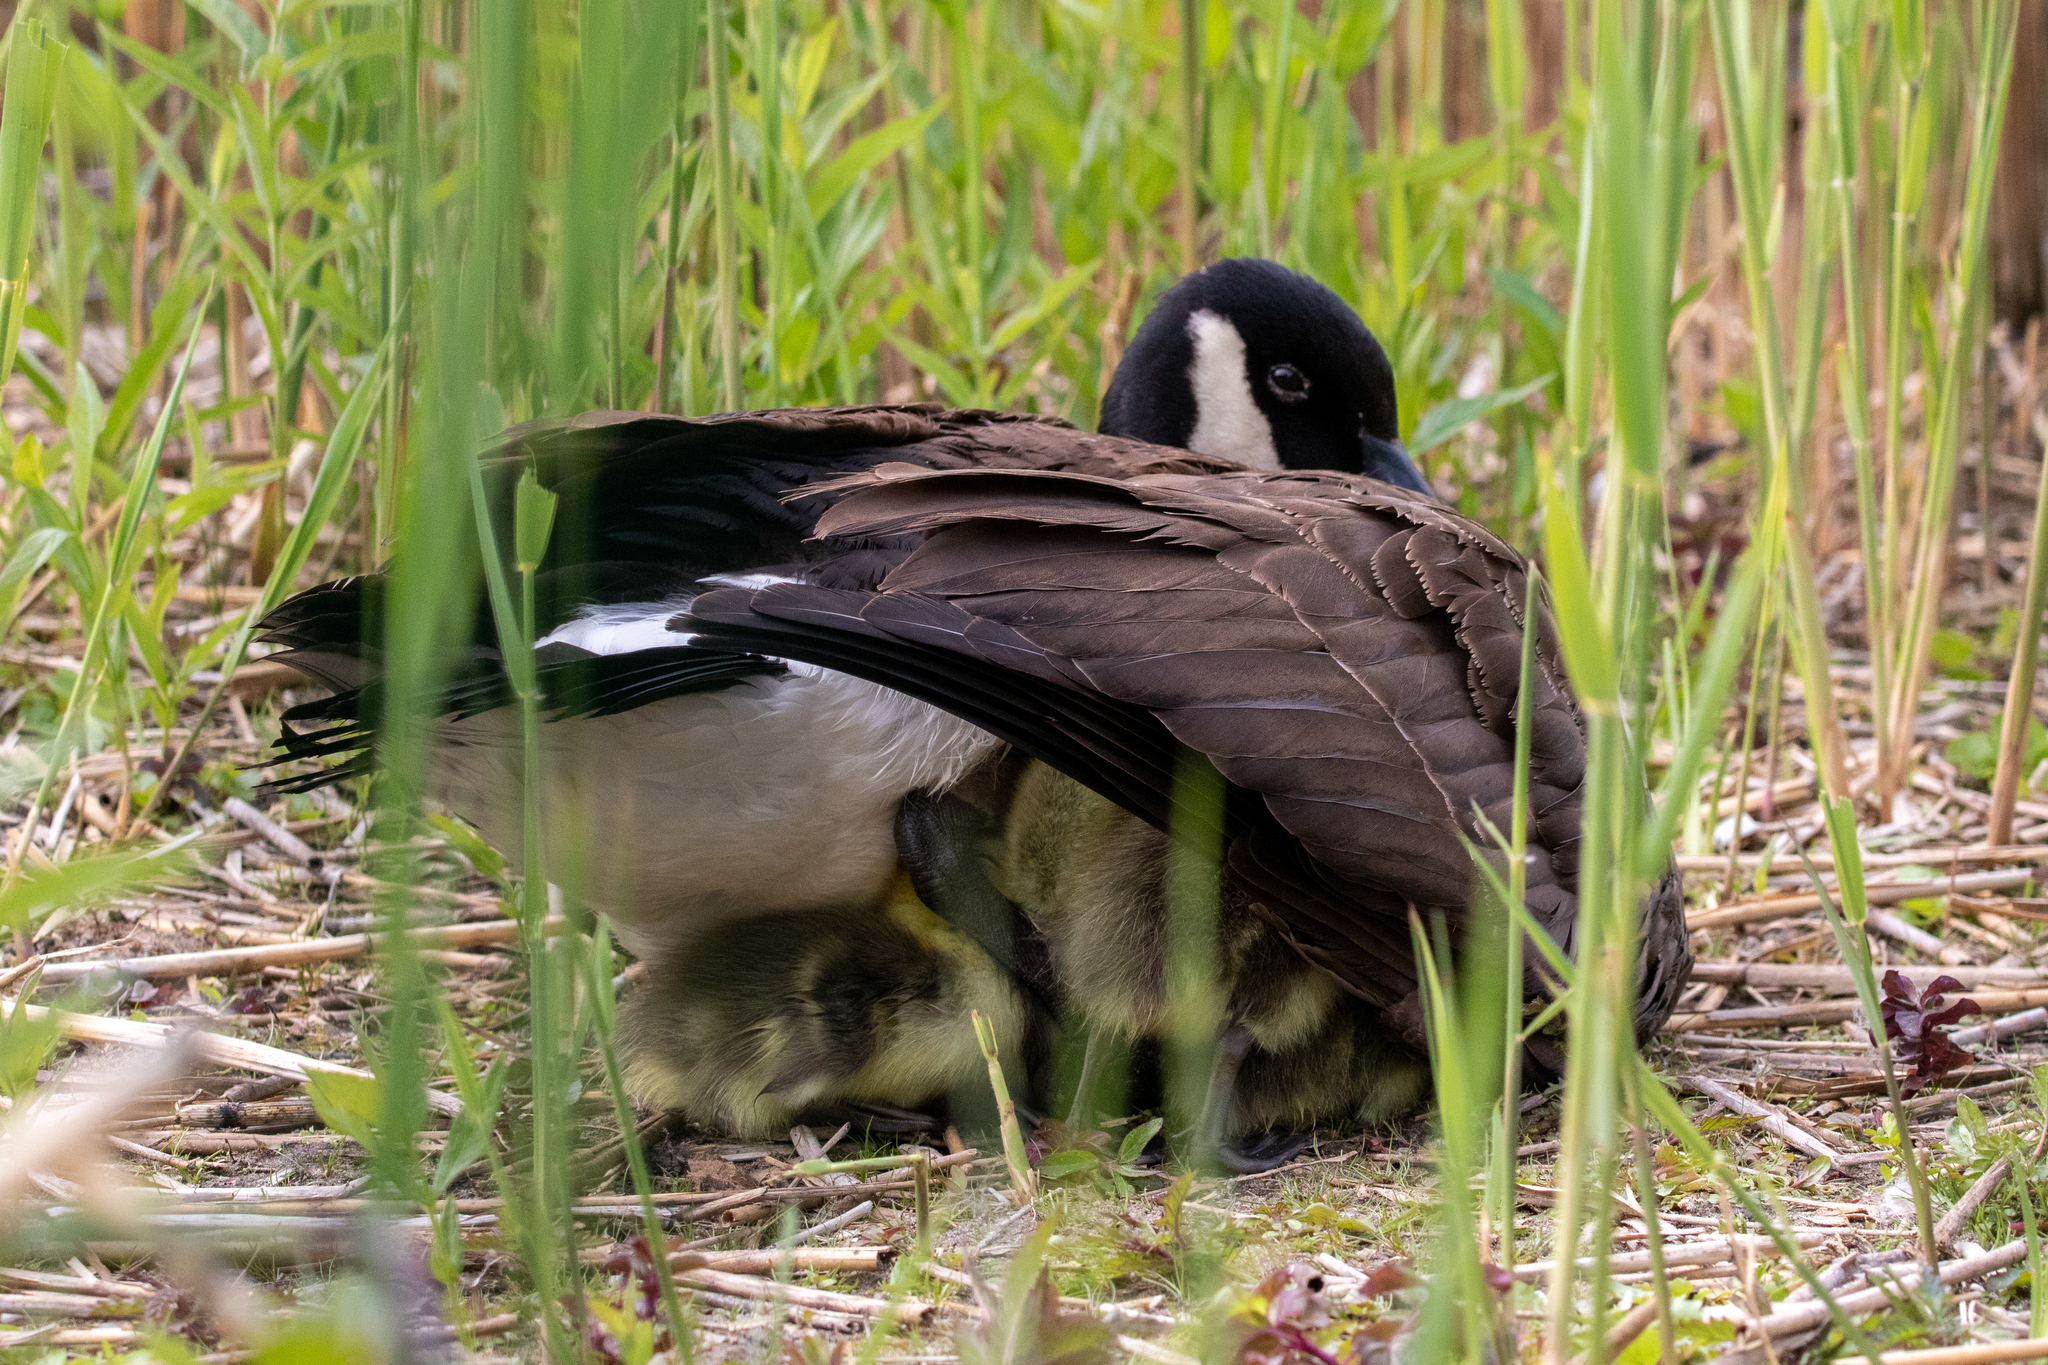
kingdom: Animalia
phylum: Chordata
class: Aves
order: Anseriformes
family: Anatidae
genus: Branta
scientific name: Branta canadensis
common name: Canada goose
